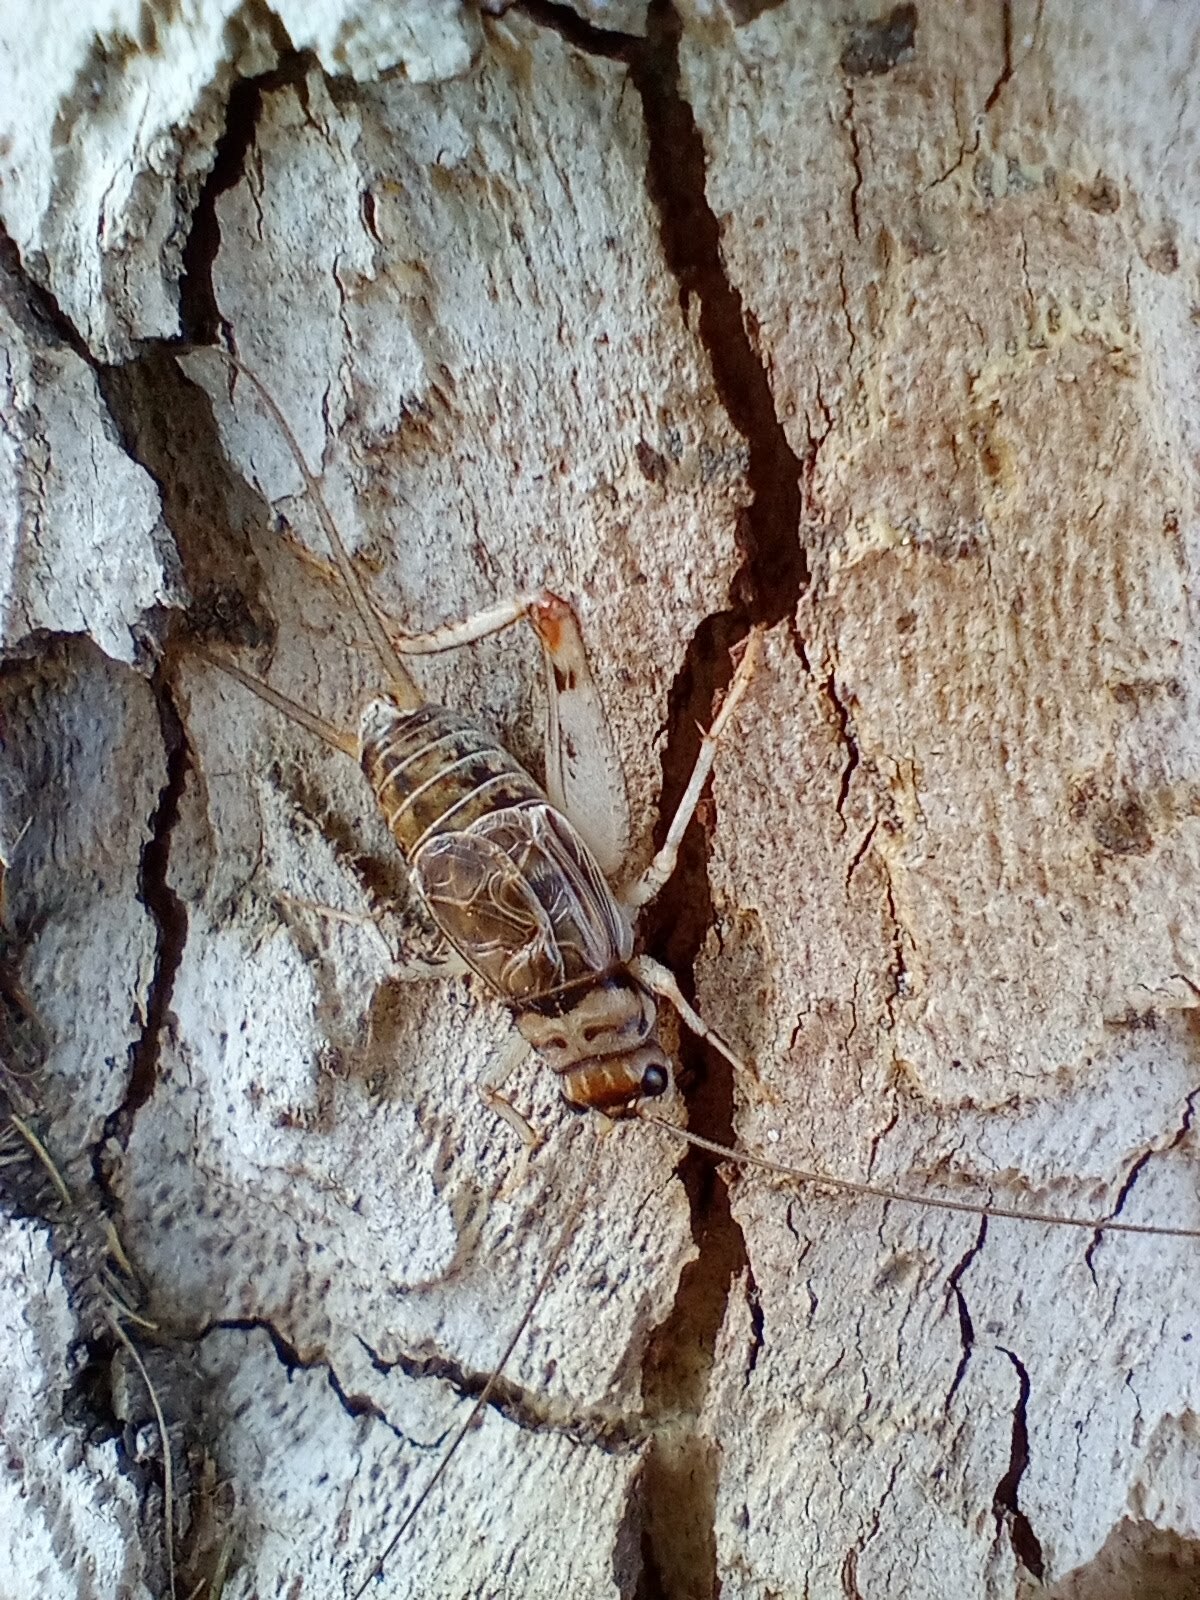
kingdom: Animalia
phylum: Arthropoda
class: Insecta
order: Orthoptera
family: Gryllidae
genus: Gryllodes
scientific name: Gryllodes sigillatus
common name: Tropical house cricket
